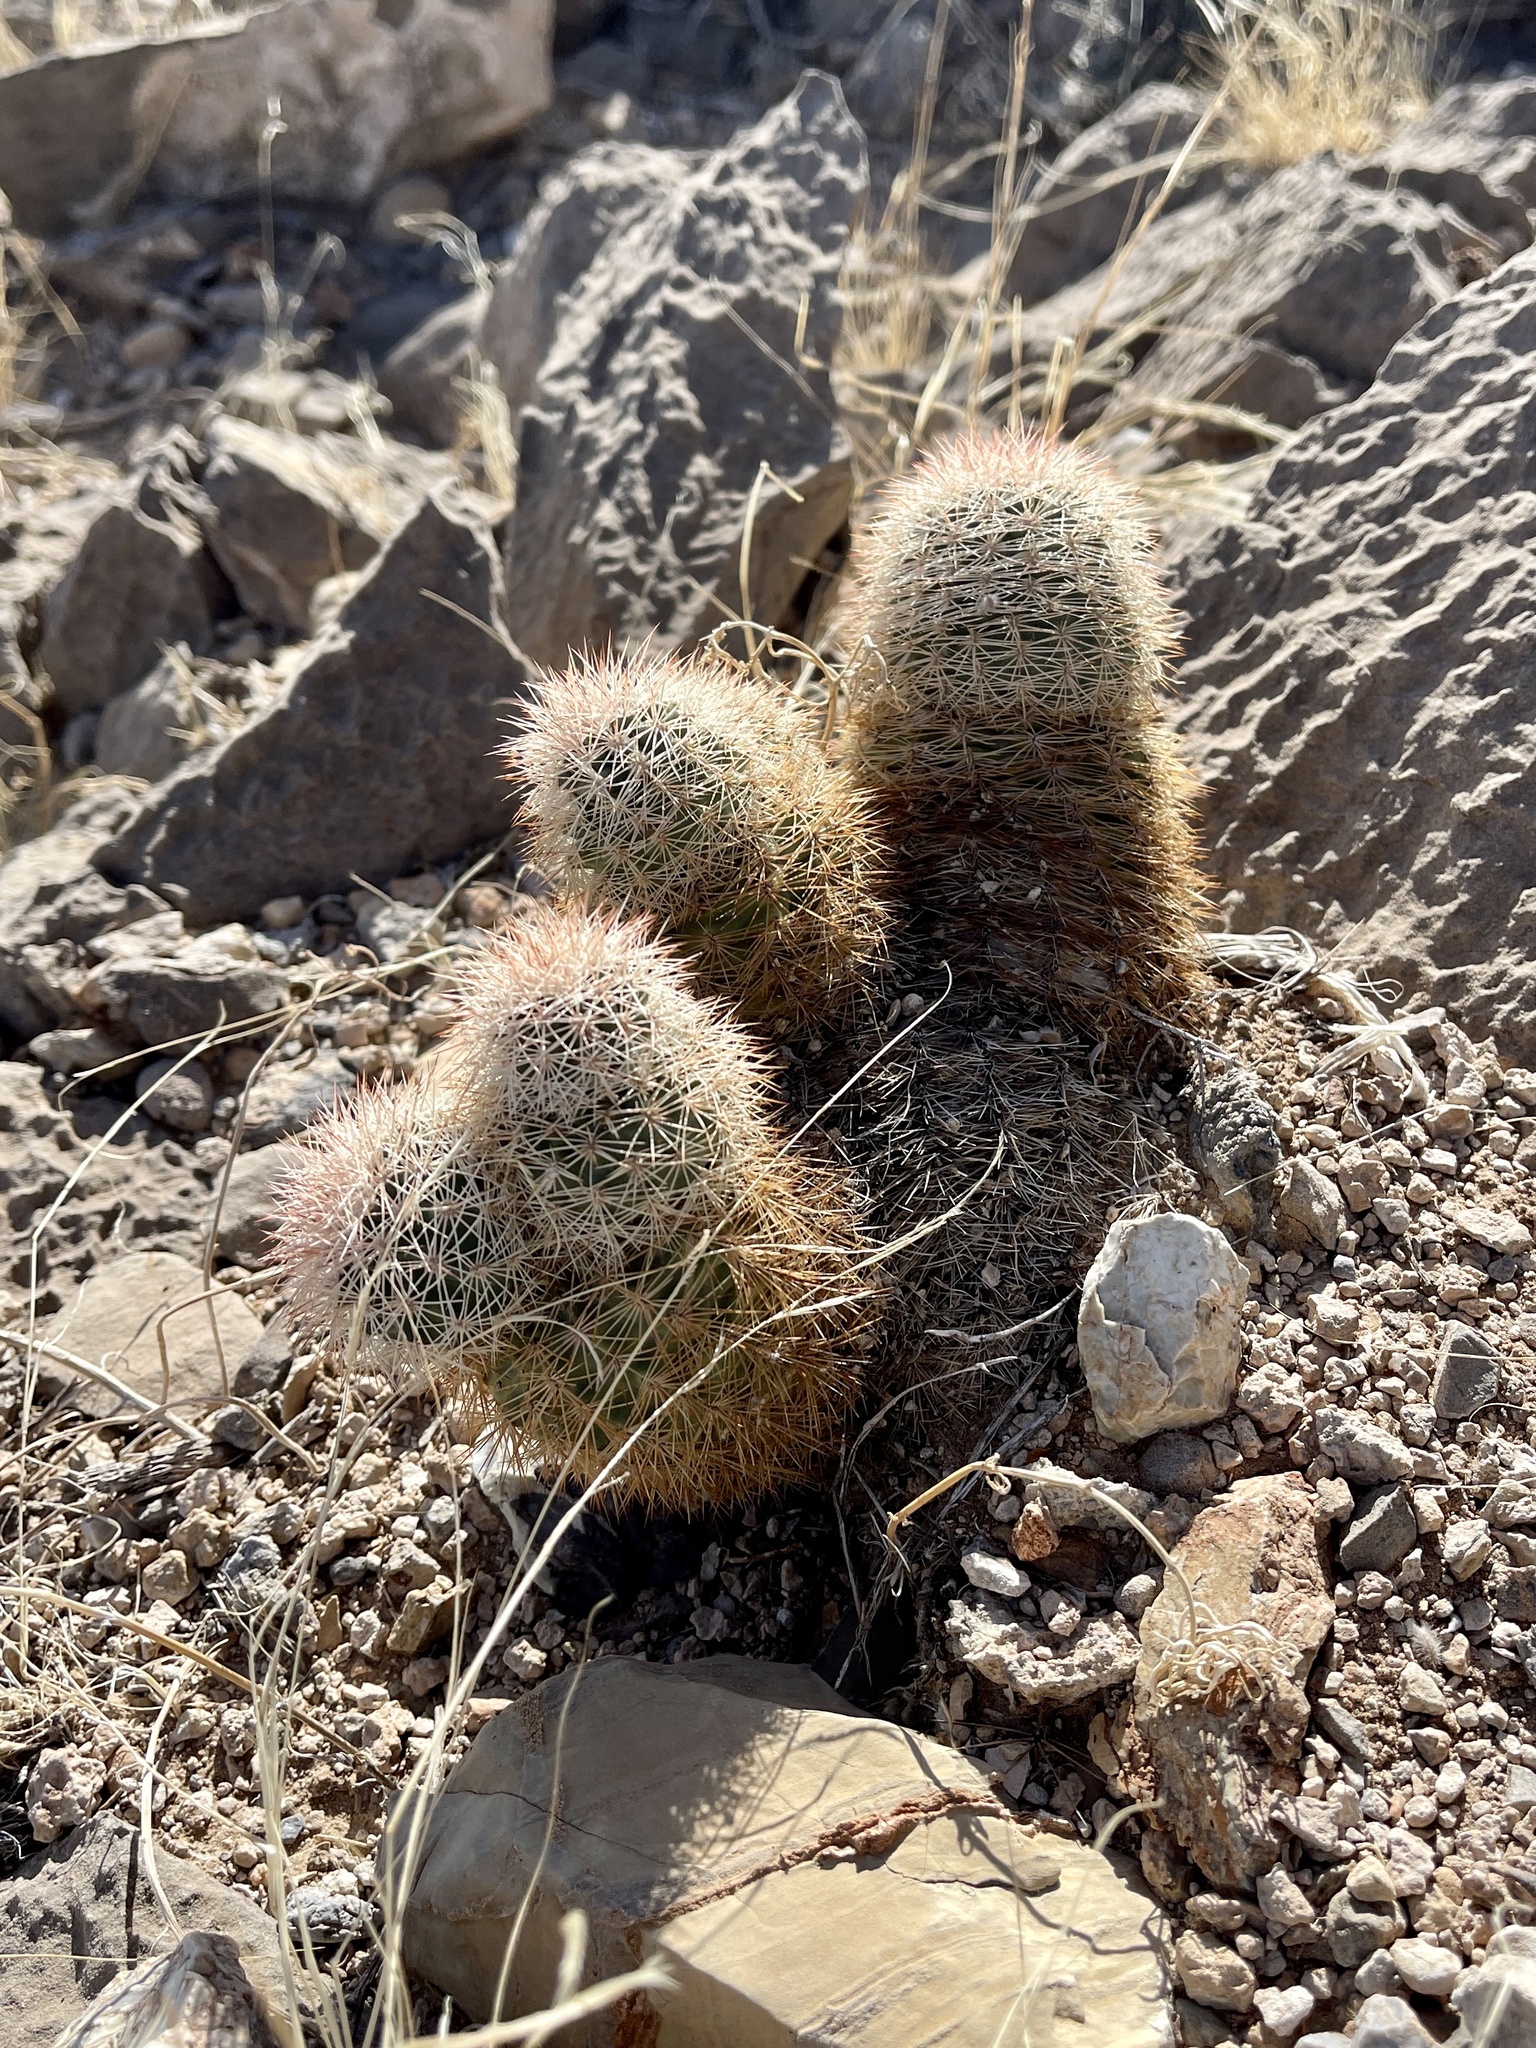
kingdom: Plantae
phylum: Tracheophyta
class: Magnoliopsida
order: Caryophyllales
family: Cactaceae
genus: Echinocereus
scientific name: Echinocereus dasyacanthus
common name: Spiny hedgehog cactus
